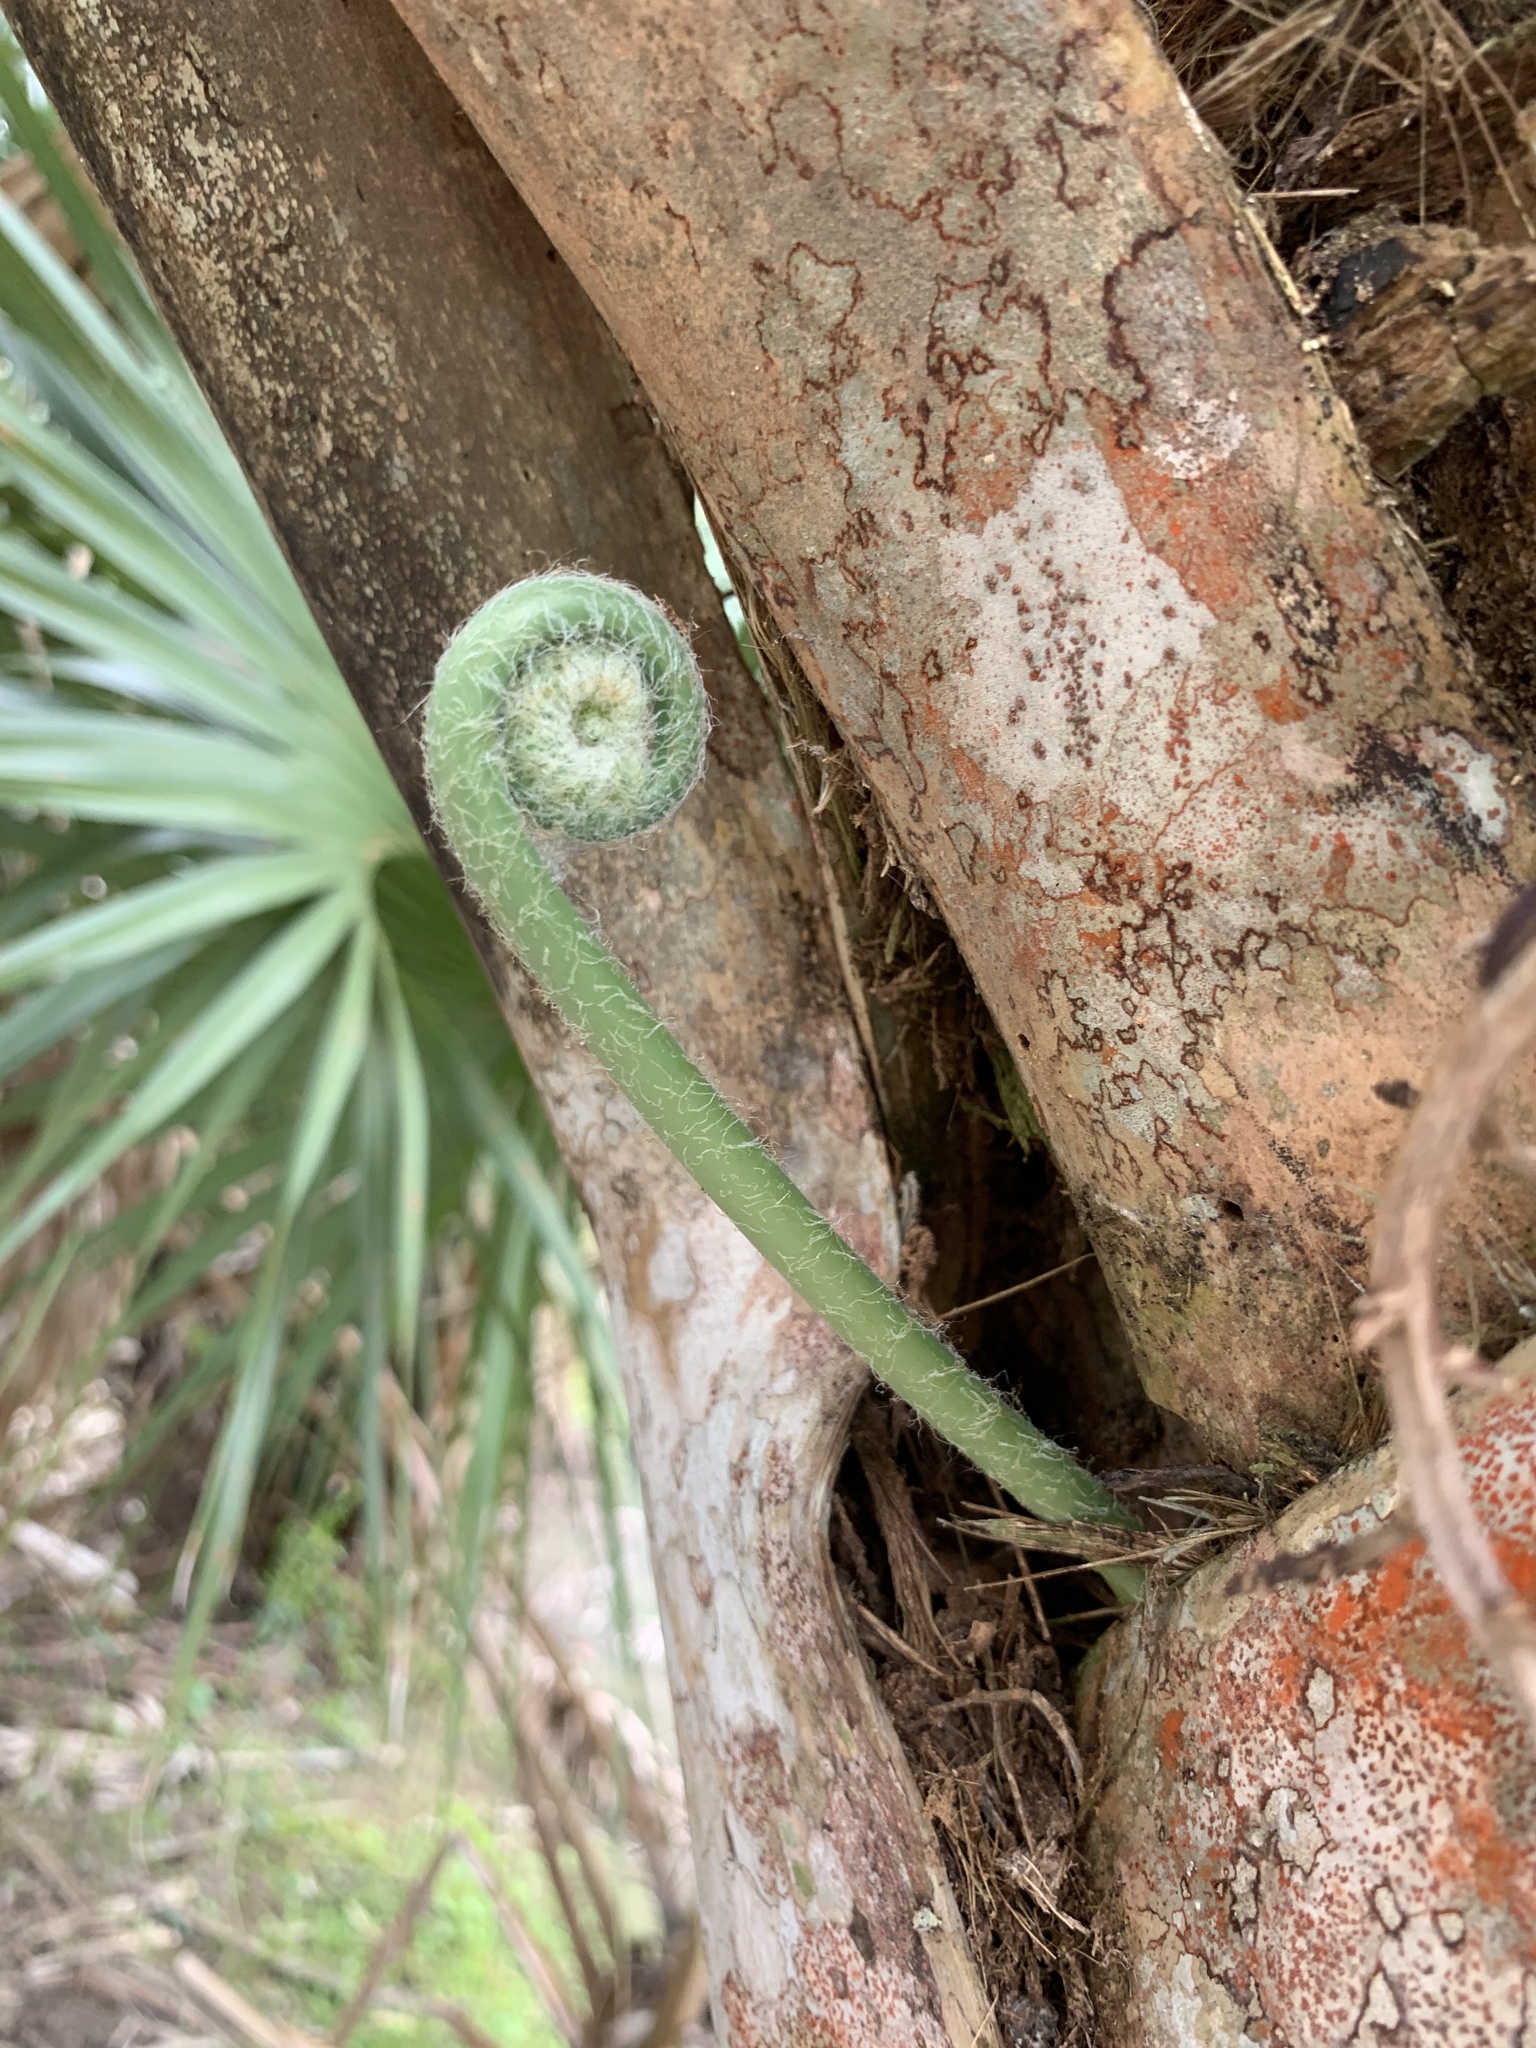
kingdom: Plantae
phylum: Tracheophyta
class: Polypodiopsida
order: Polypodiales
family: Polypodiaceae
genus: Phlebodium
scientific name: Phlebodium aureum
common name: Gold-foot fern
